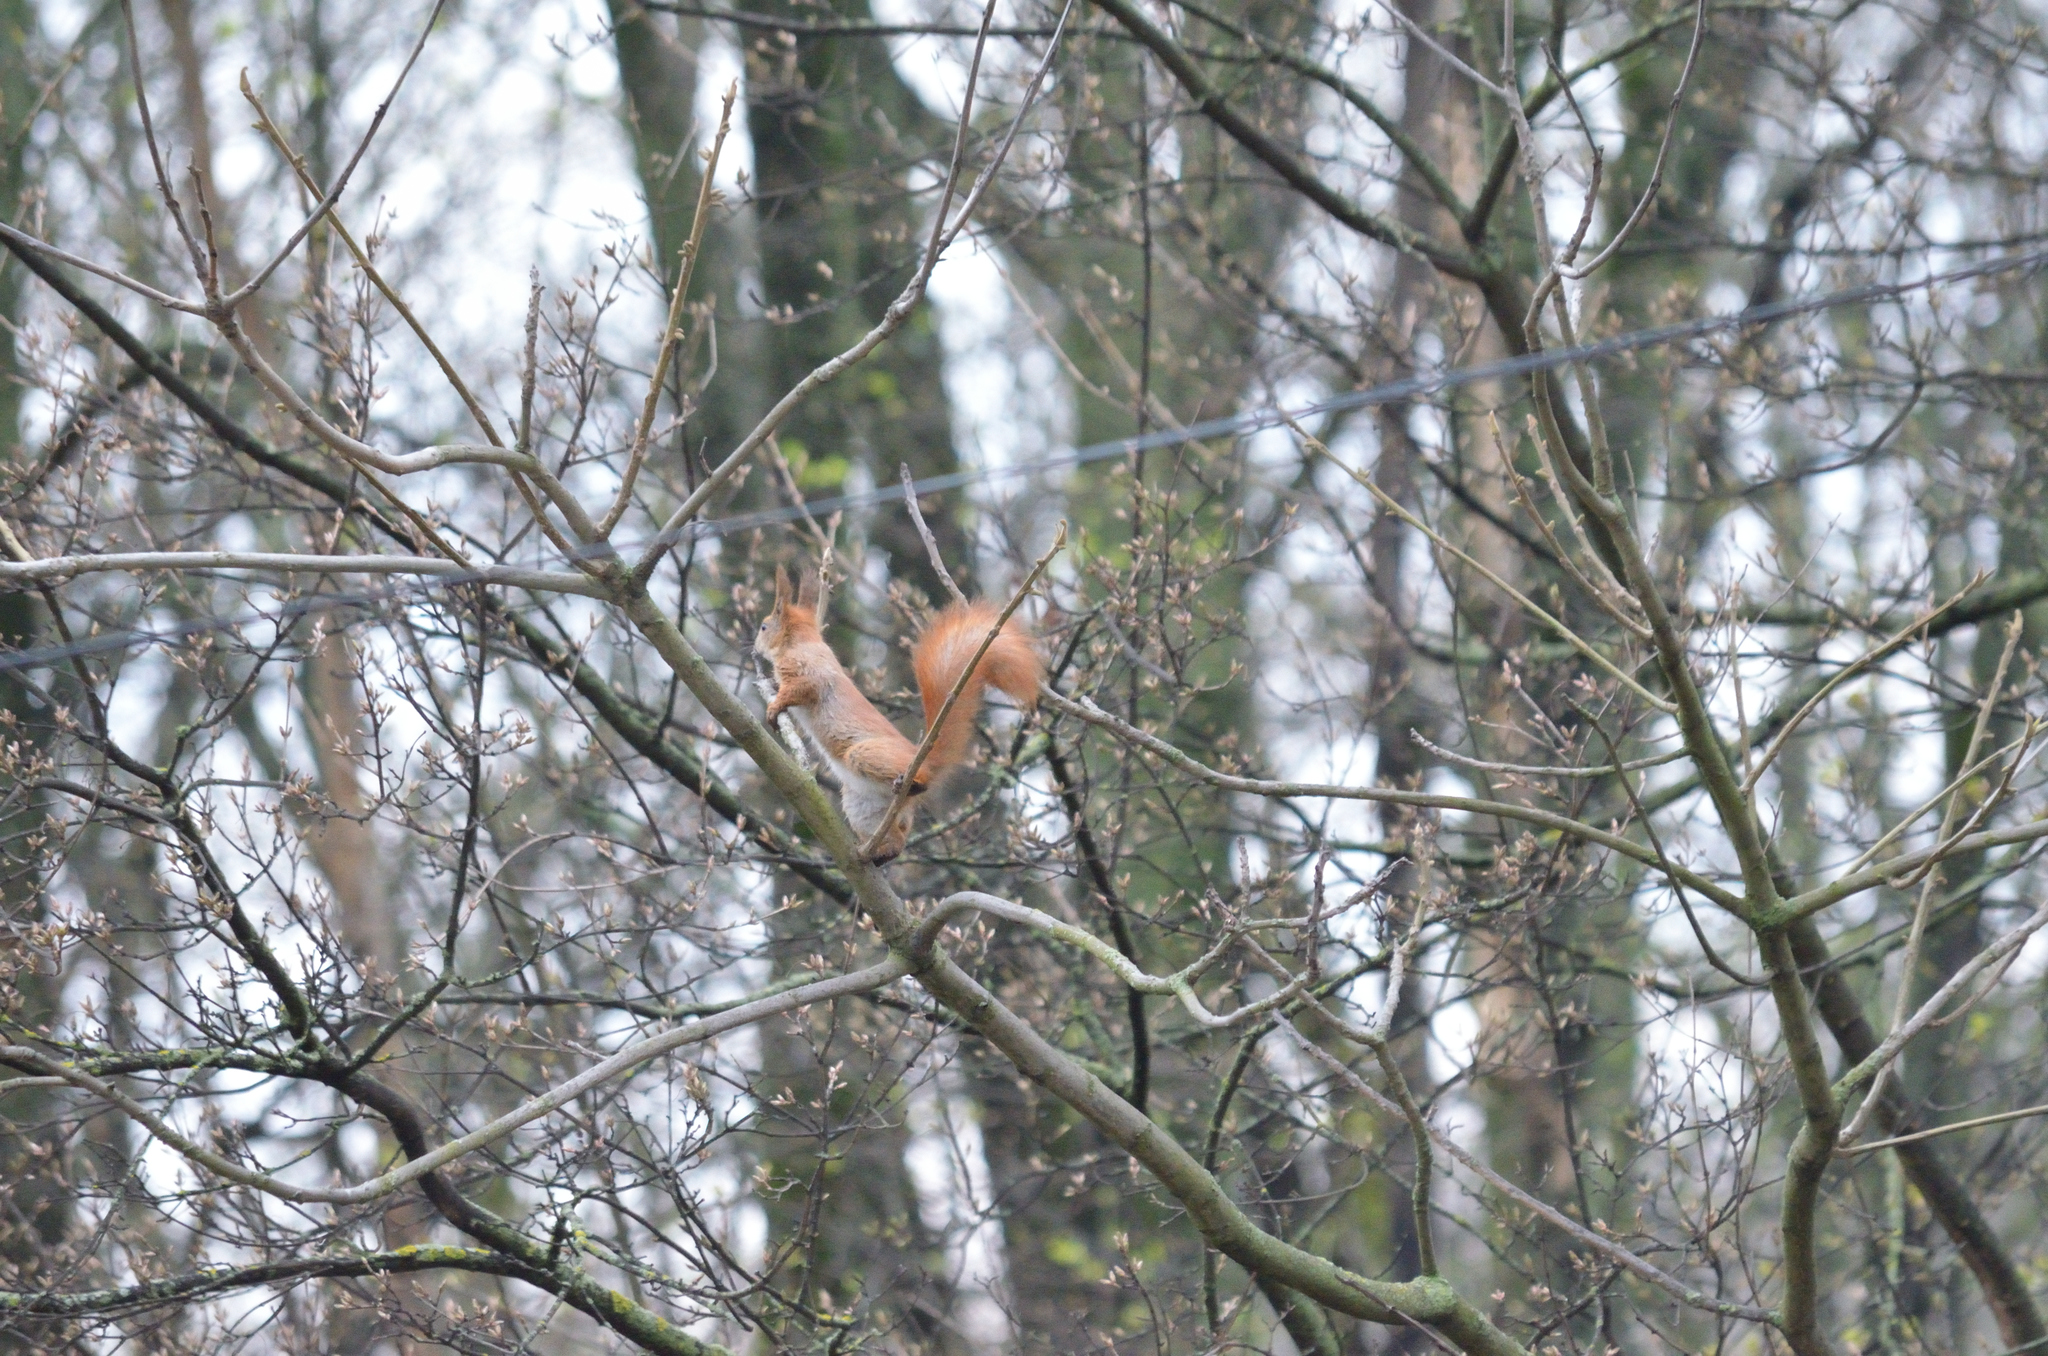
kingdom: Animalia
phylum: Chordata
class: Mammalia
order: Rodentia
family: Sciuridae
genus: Sciurus
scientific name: Sciurus vulgaris
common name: Eurasian red squirrel
